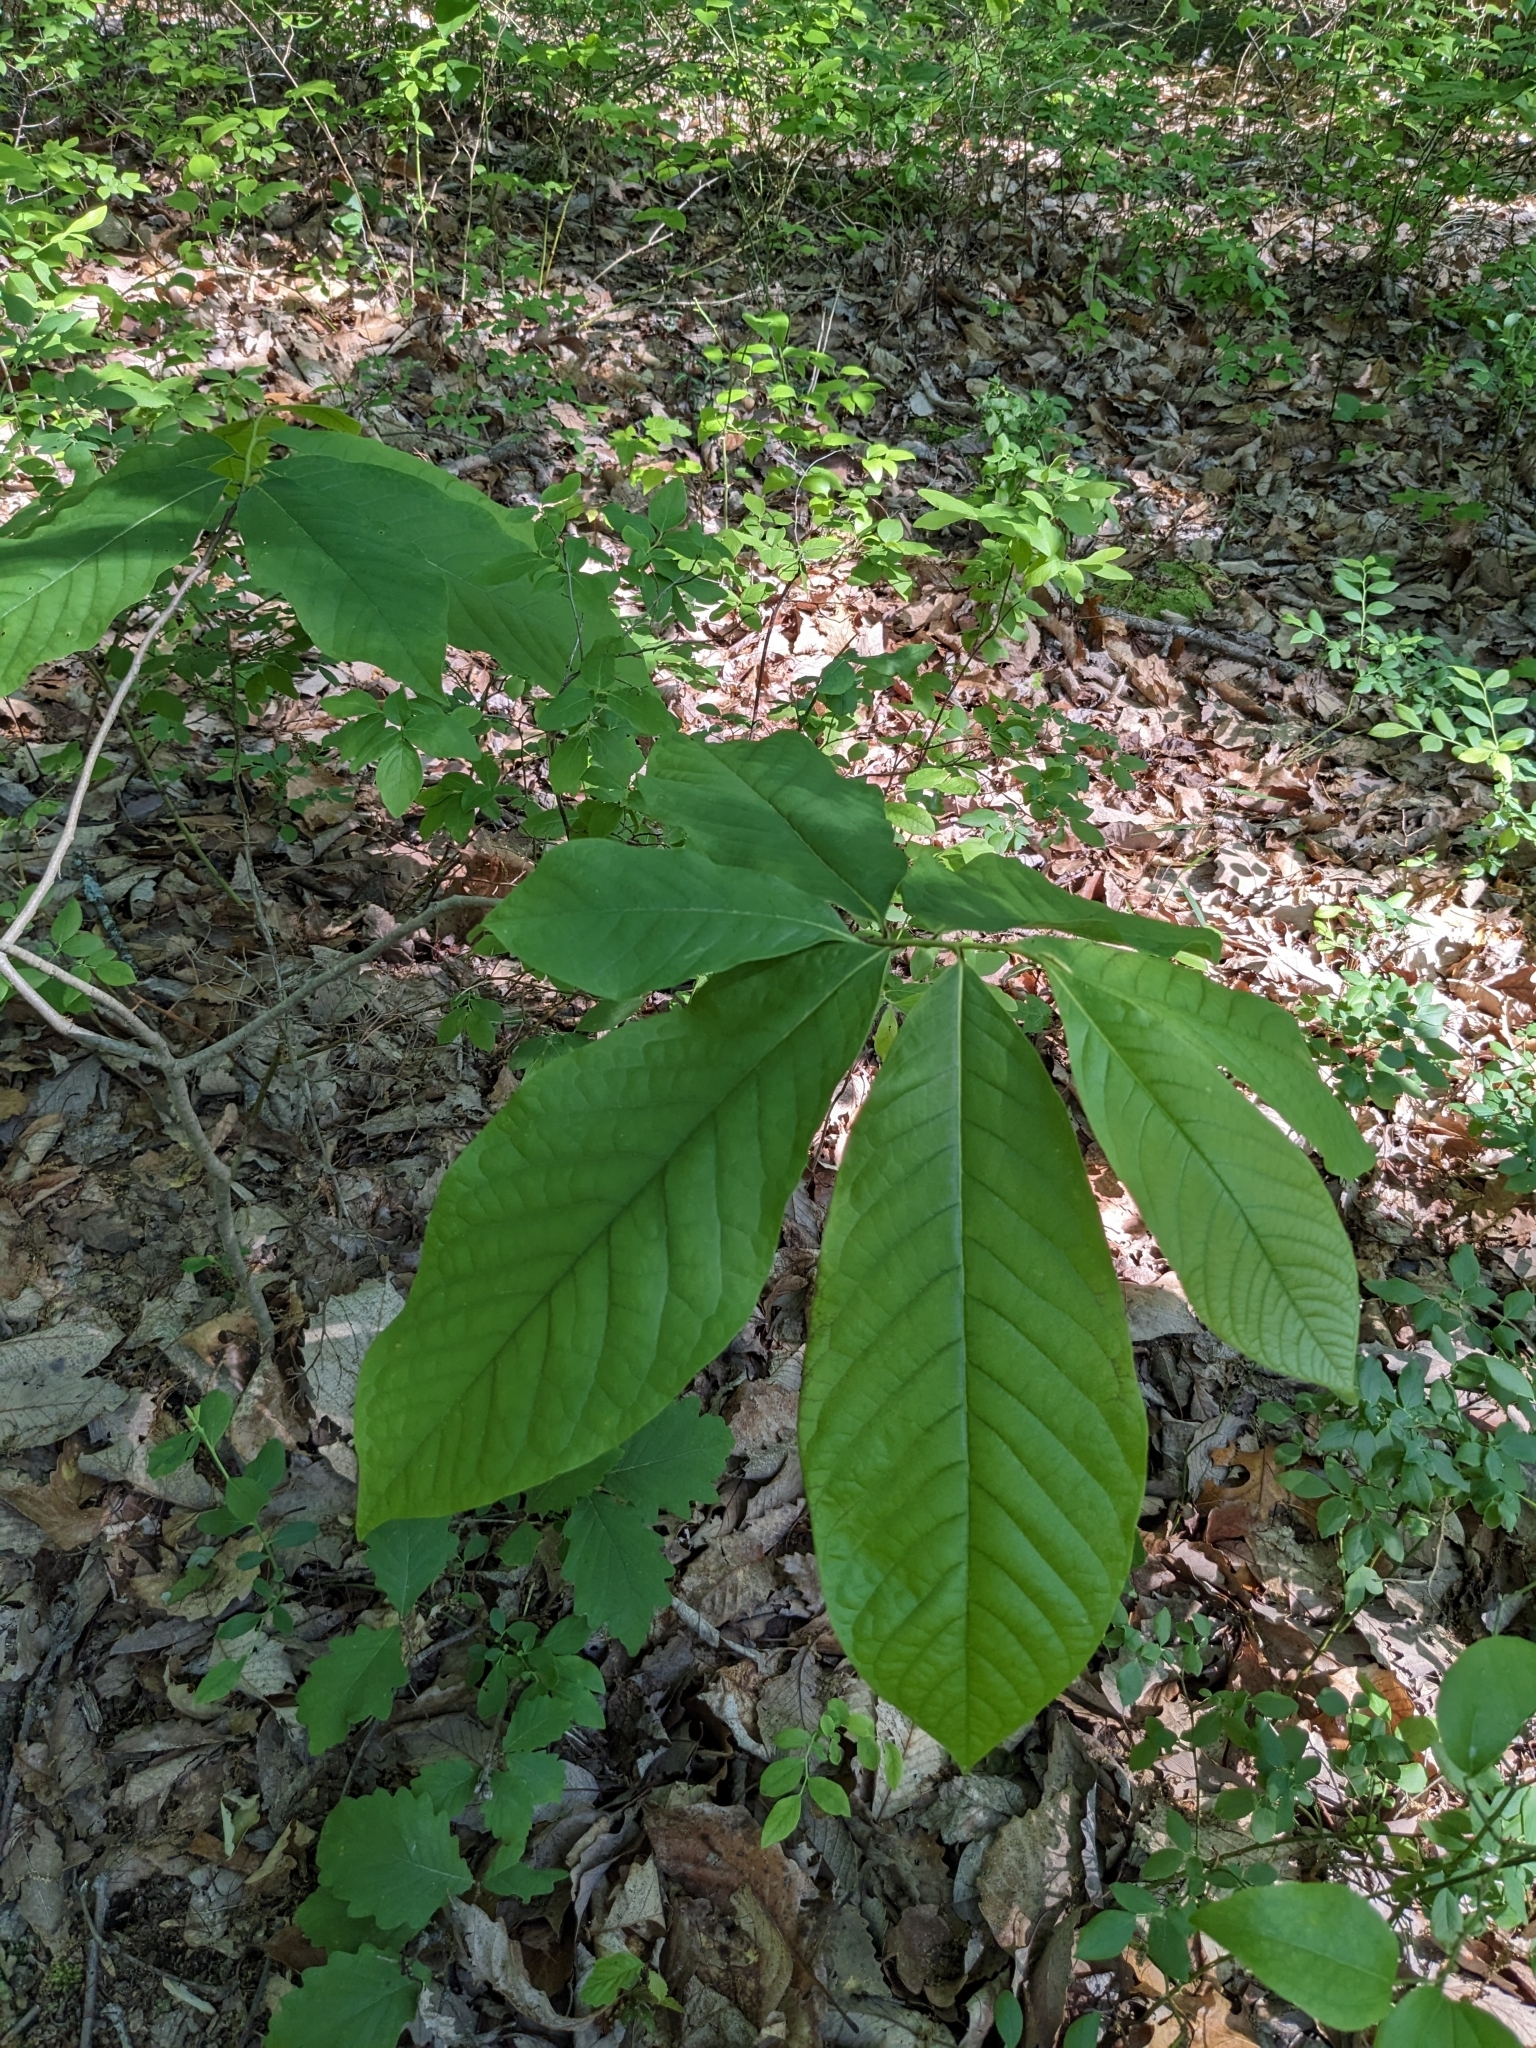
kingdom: Plantae
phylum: Tracheophyta
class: Magnoliopsida
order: Magnoliales
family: Annonaceae
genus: Asimina
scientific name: Asimina triloba
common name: Dog-banana
